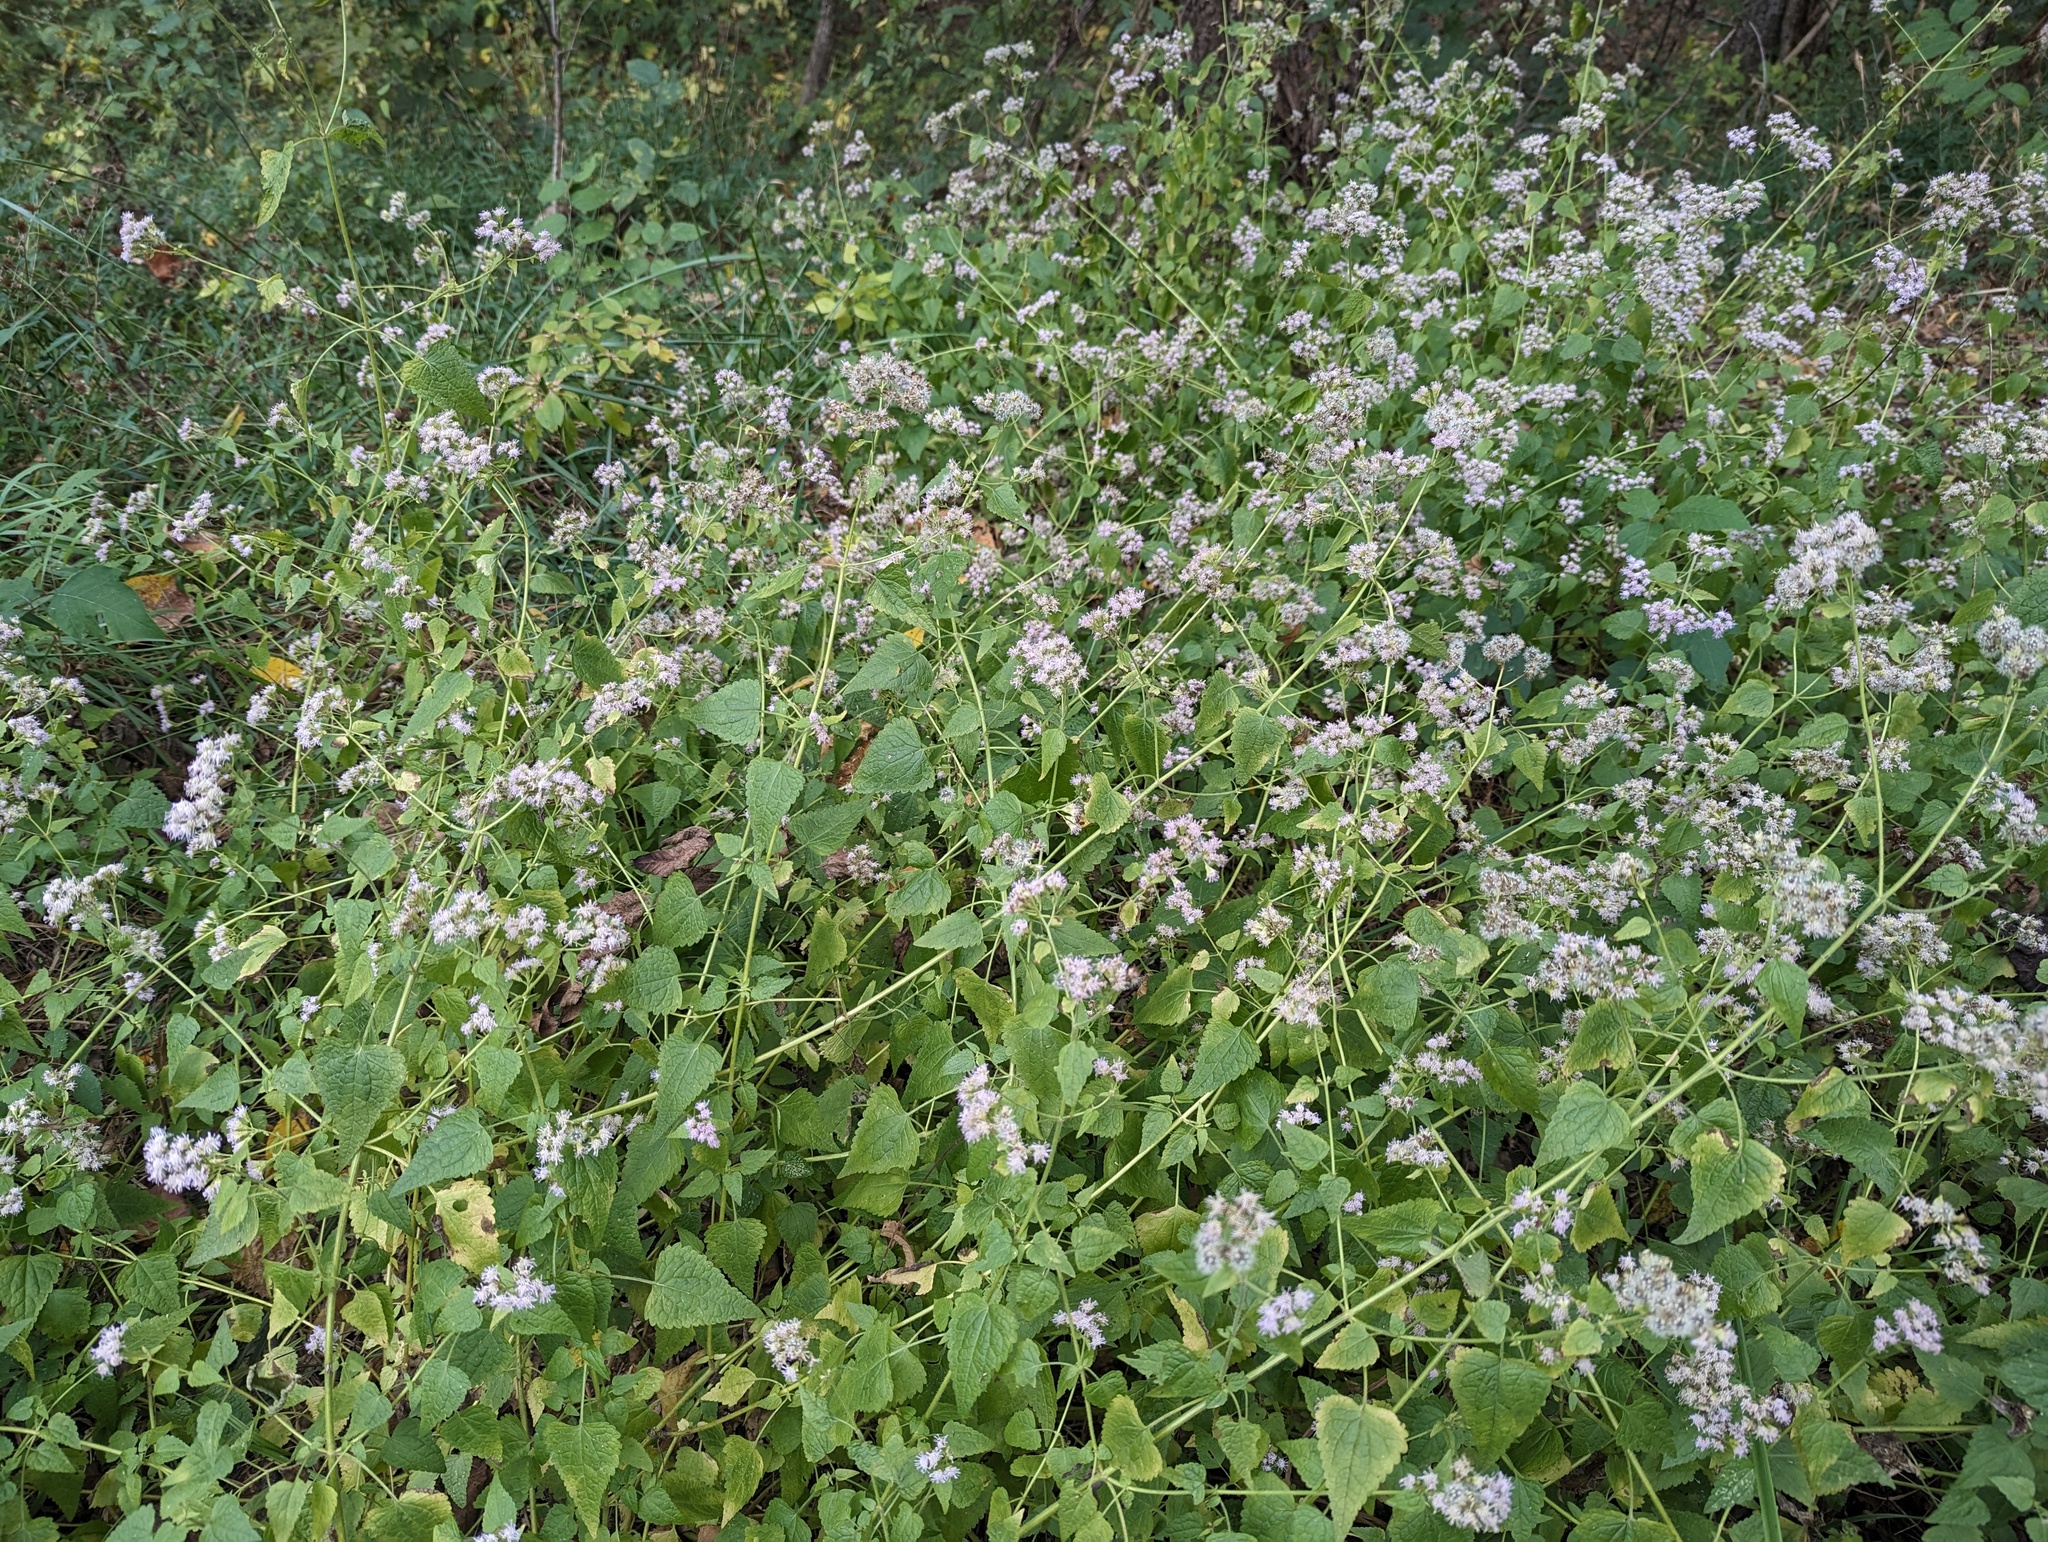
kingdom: Plantae
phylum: Tracheophyta
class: Magnoliopsida
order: Asterales
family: Asteraceae
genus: Fleischmannia
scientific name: Fleischmannia incarnata
